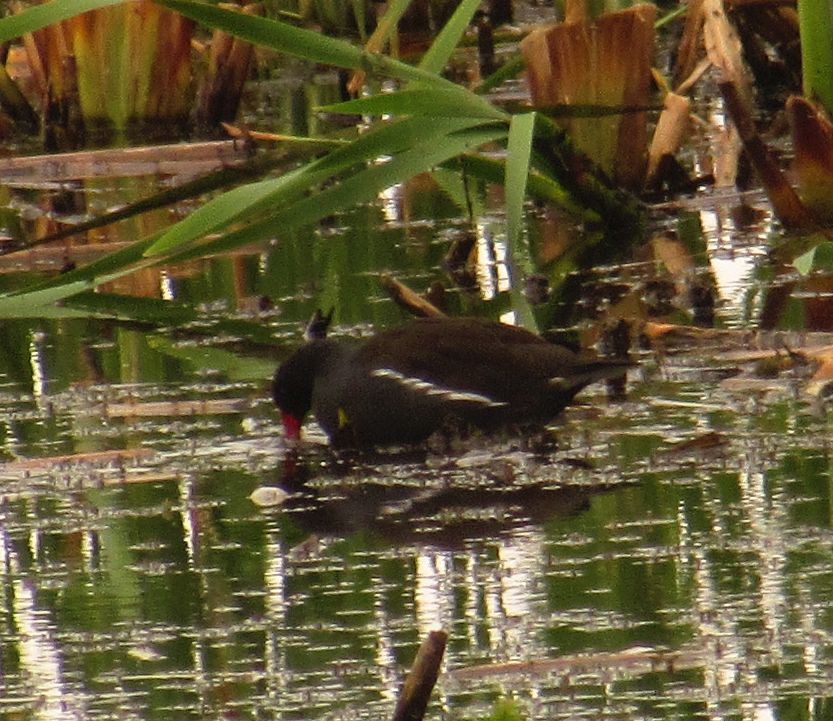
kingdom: Animalia
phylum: Chordata
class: Aves
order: Gruiformes
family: Rallidae
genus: Gallinula
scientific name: Gallinula chloropus
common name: Common moorhen
